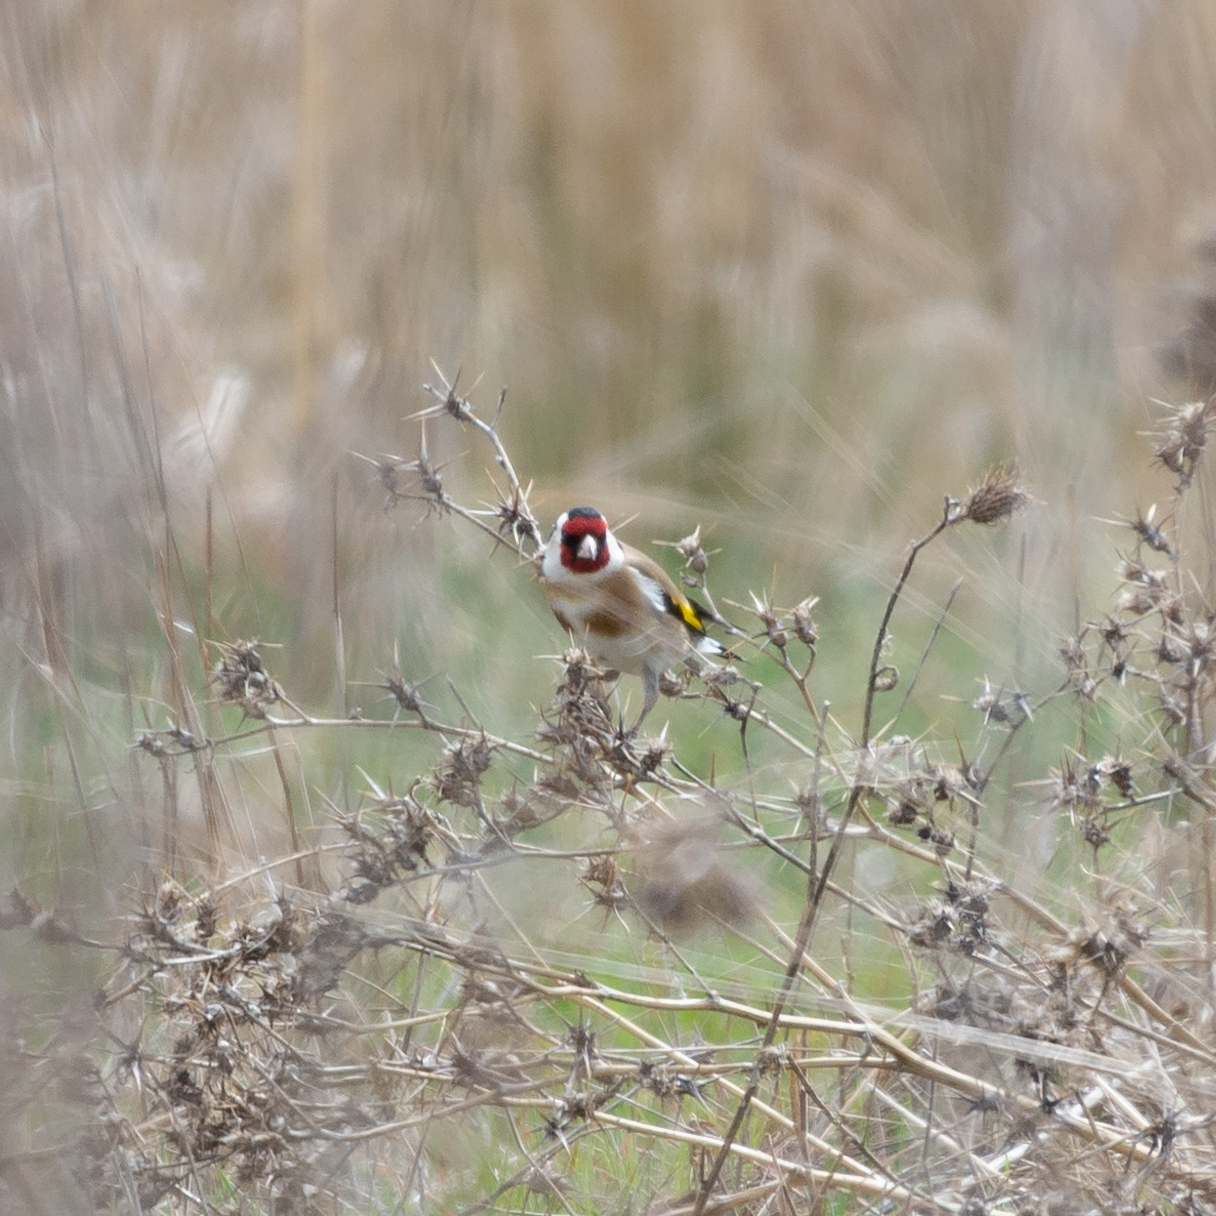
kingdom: Animalia
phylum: Chordata
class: Aves
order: Passeriformes
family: Fringillidae
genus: Carduelis
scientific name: Carduelis carduelis
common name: European goldfinch
